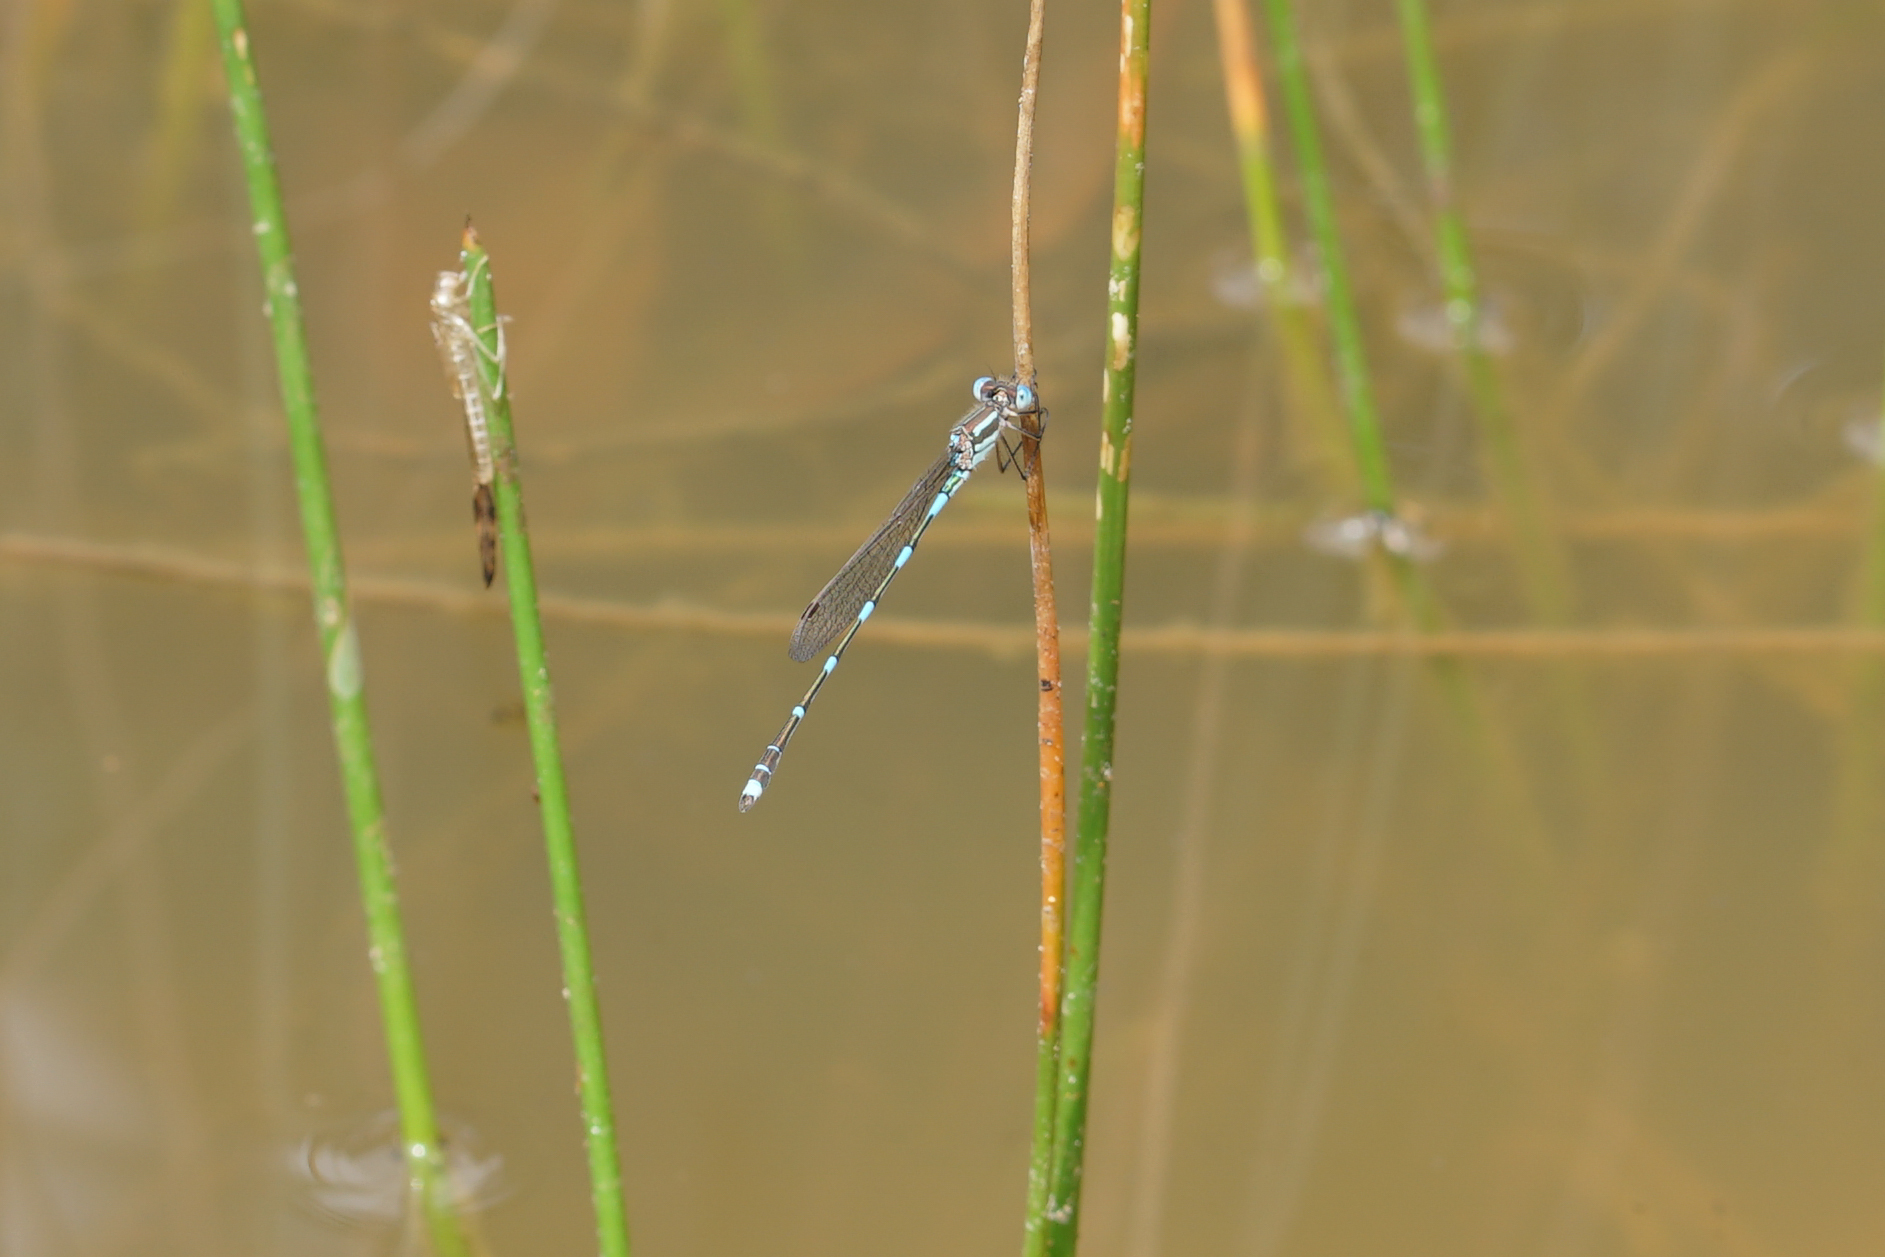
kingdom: Animalia
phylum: Arthropoda
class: Insecta
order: Odonata
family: Lestidae
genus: Austrolestes
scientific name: Austrolestes leda
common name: Wandering ringtail
